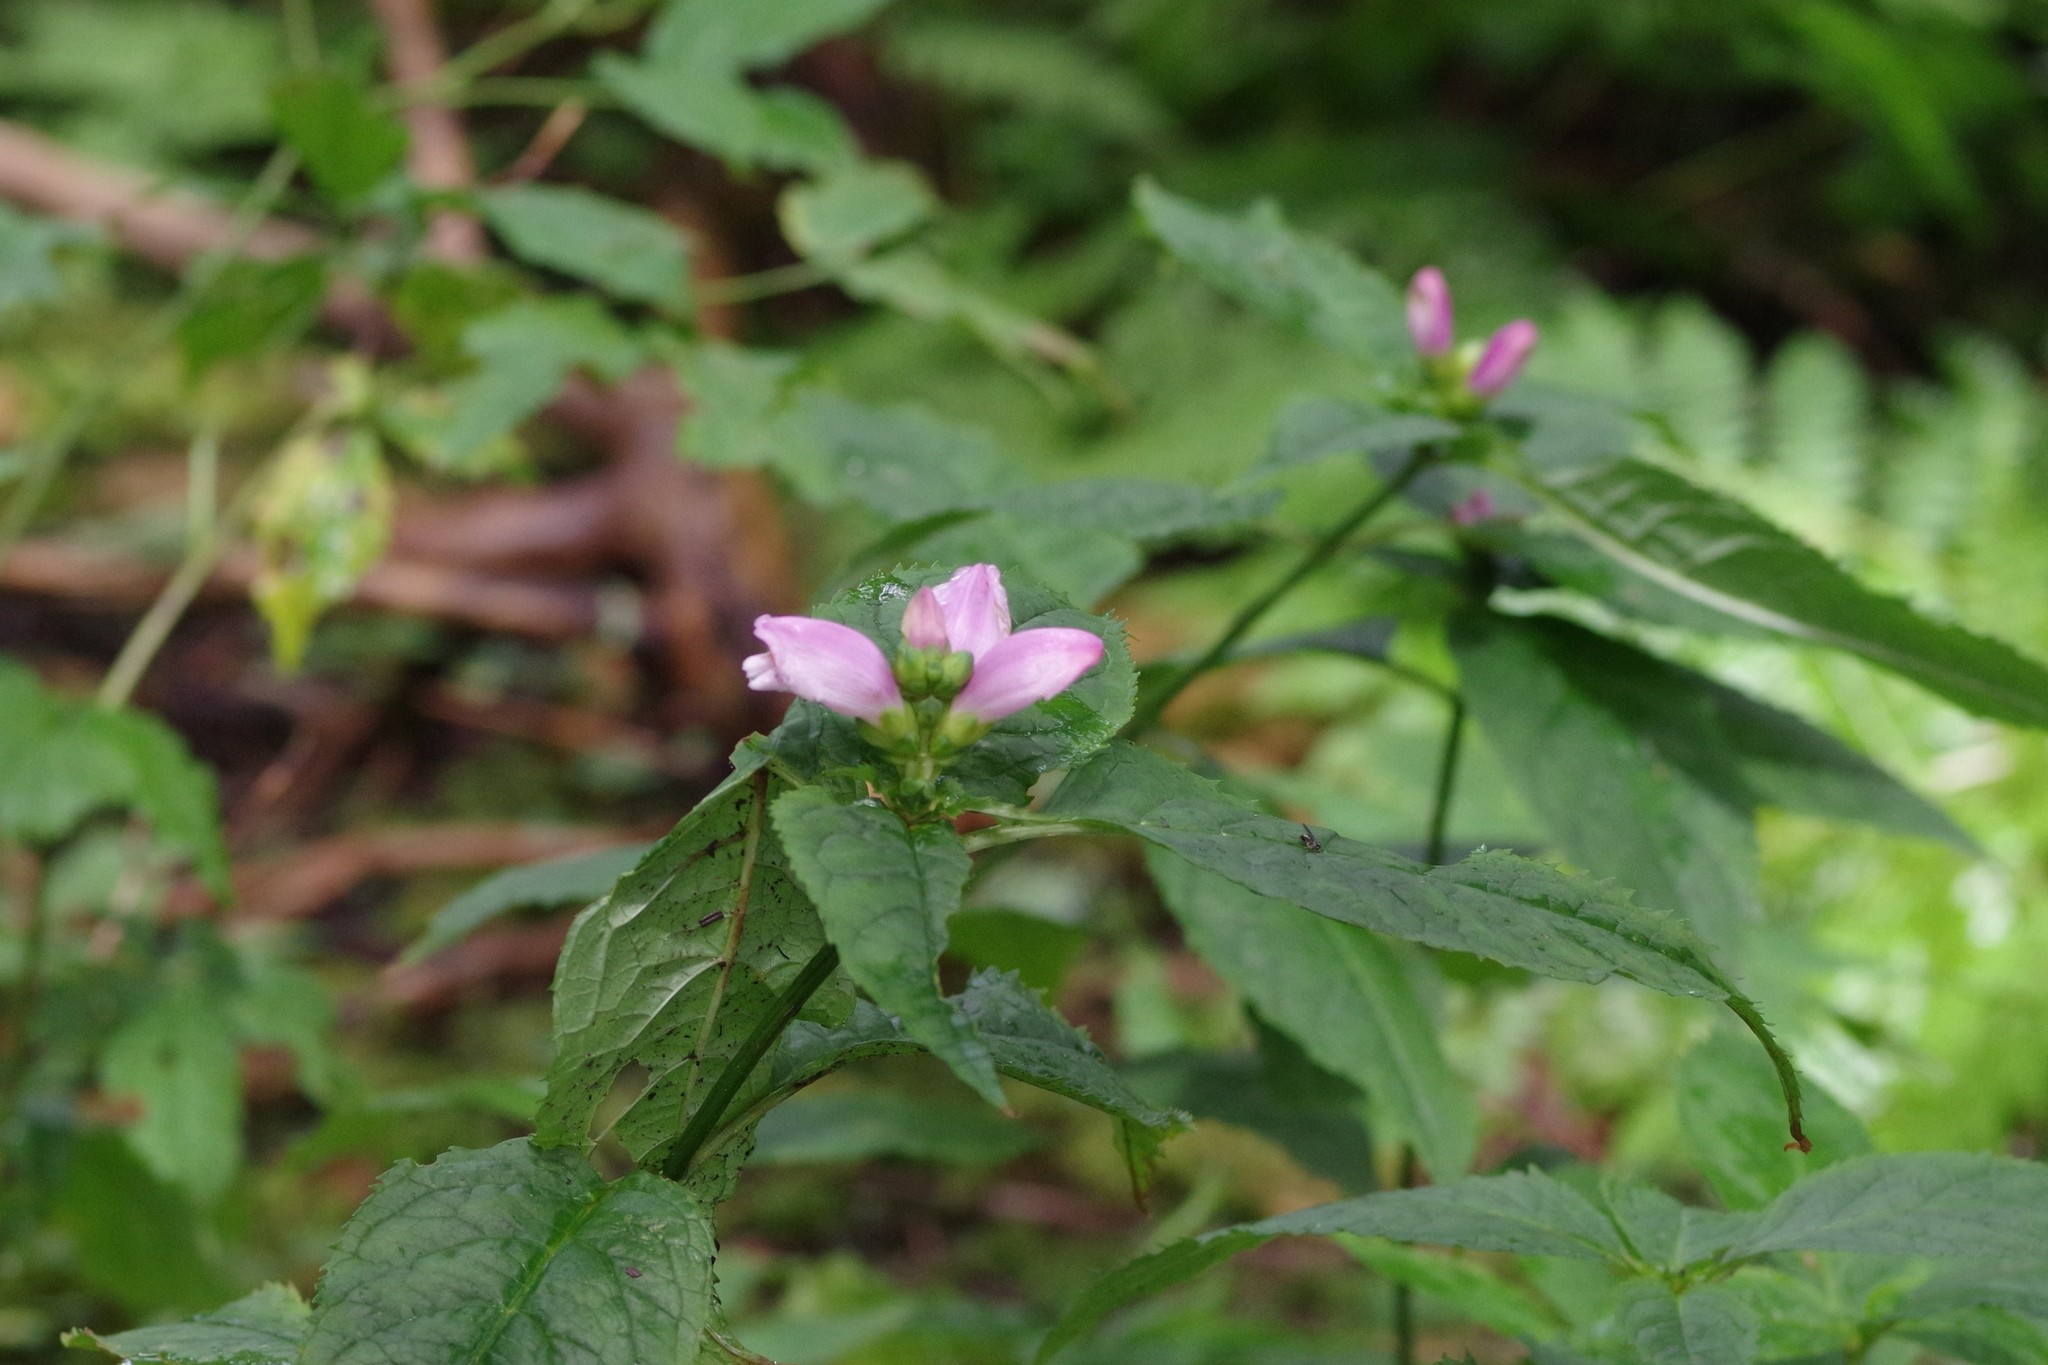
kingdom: Plantae
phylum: Tracheophyta
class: Magnoliopsida
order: Lamiales
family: Plantaginaceae
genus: Chelone
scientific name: Chelone lyonii
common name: Pink turtlehead
